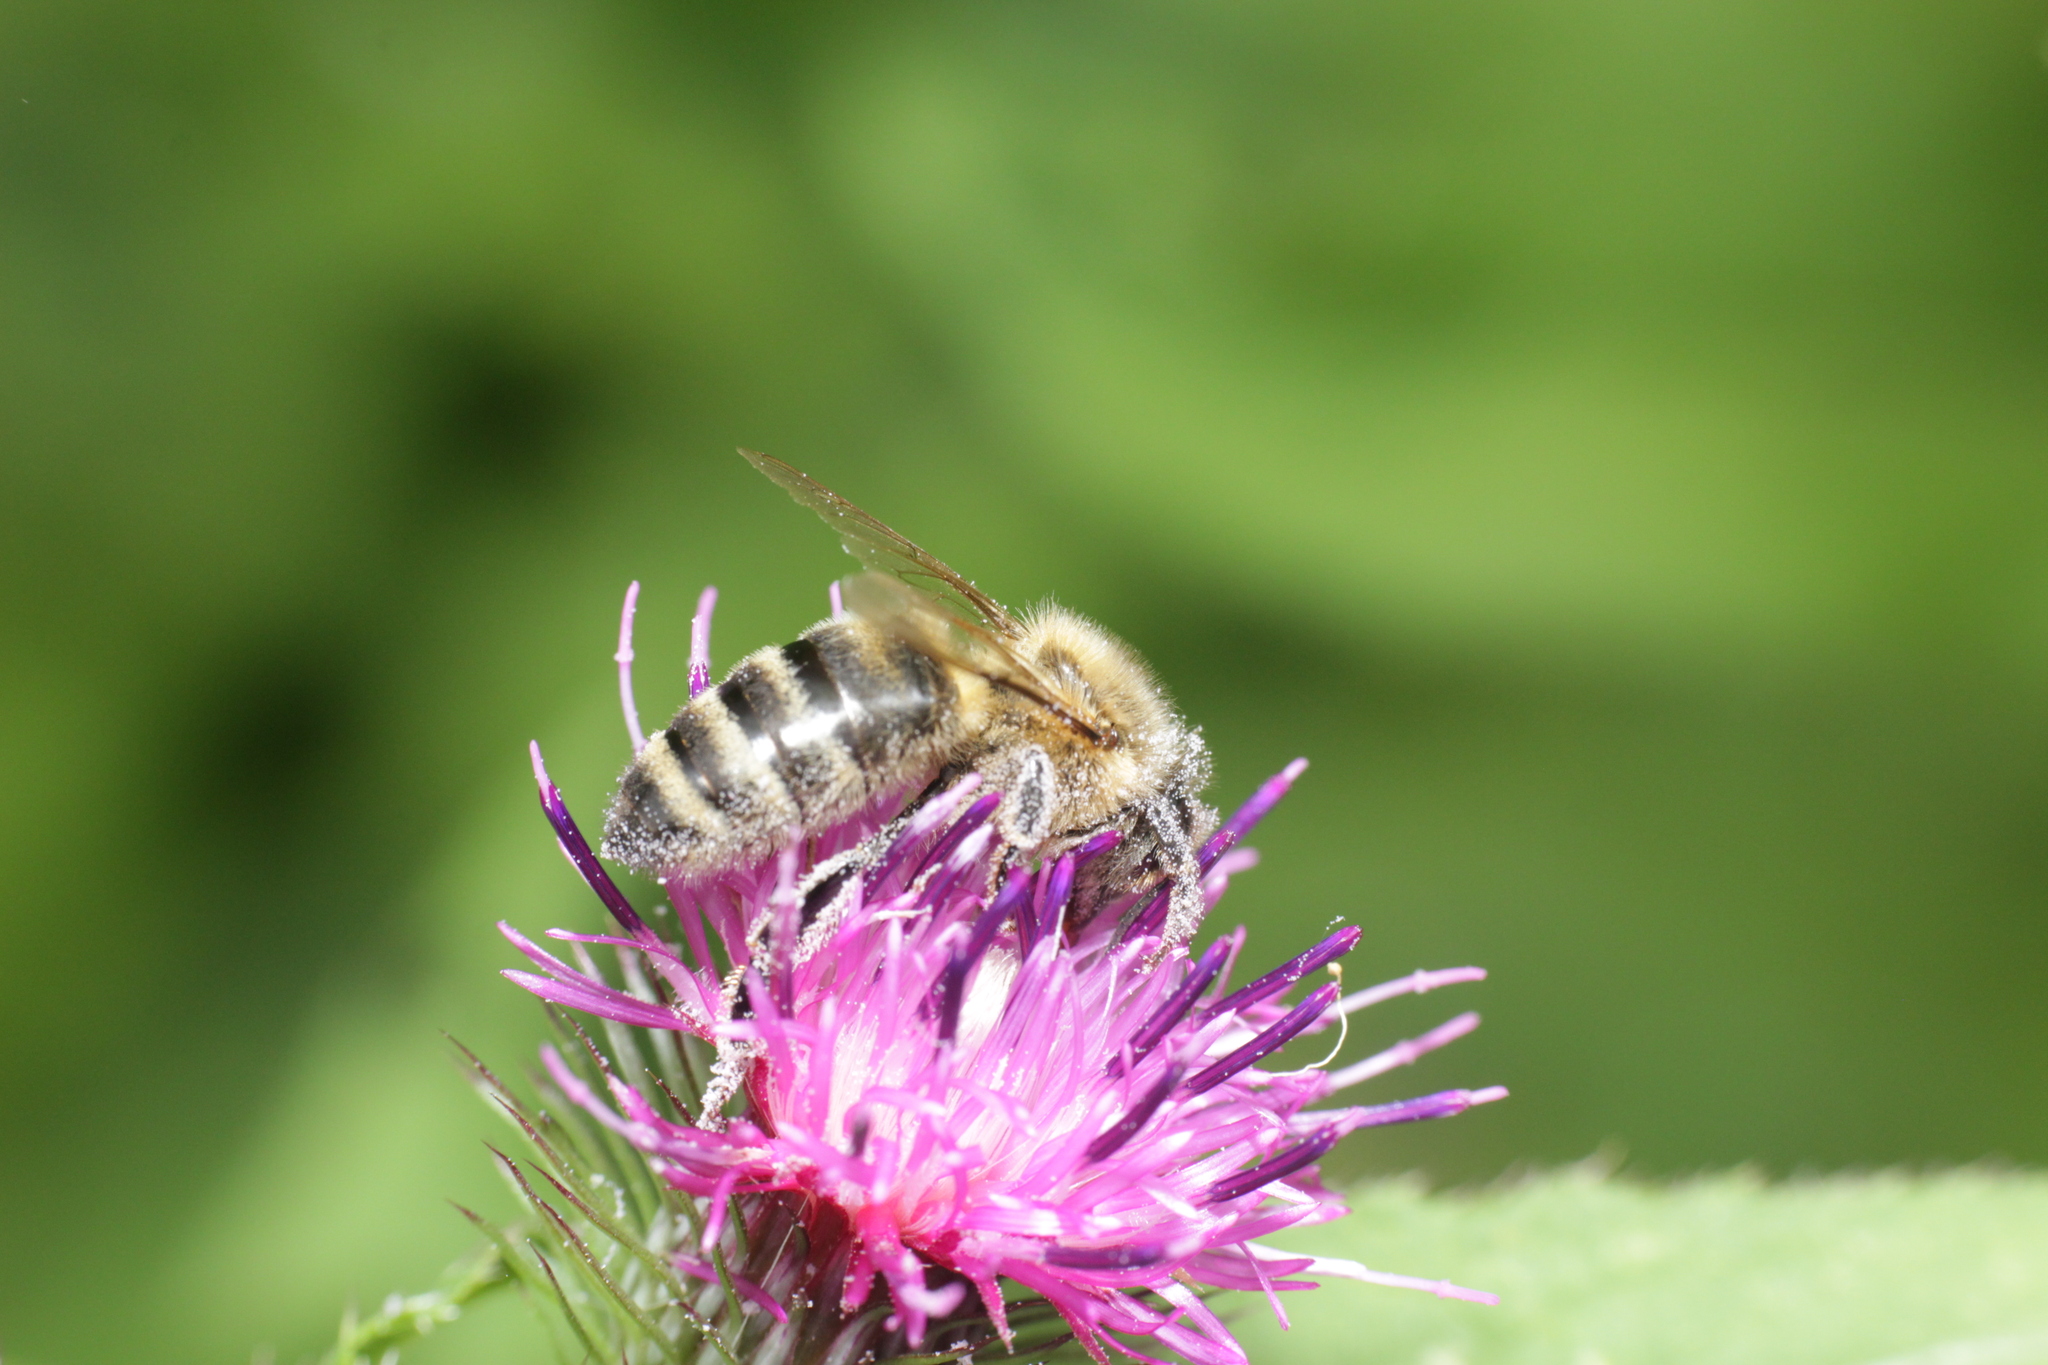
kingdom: Animalia
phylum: Arthropoda
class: Insecta
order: Hymenoptera
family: Apidae
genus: Apis
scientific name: Apis mellifera
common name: Honey bee
